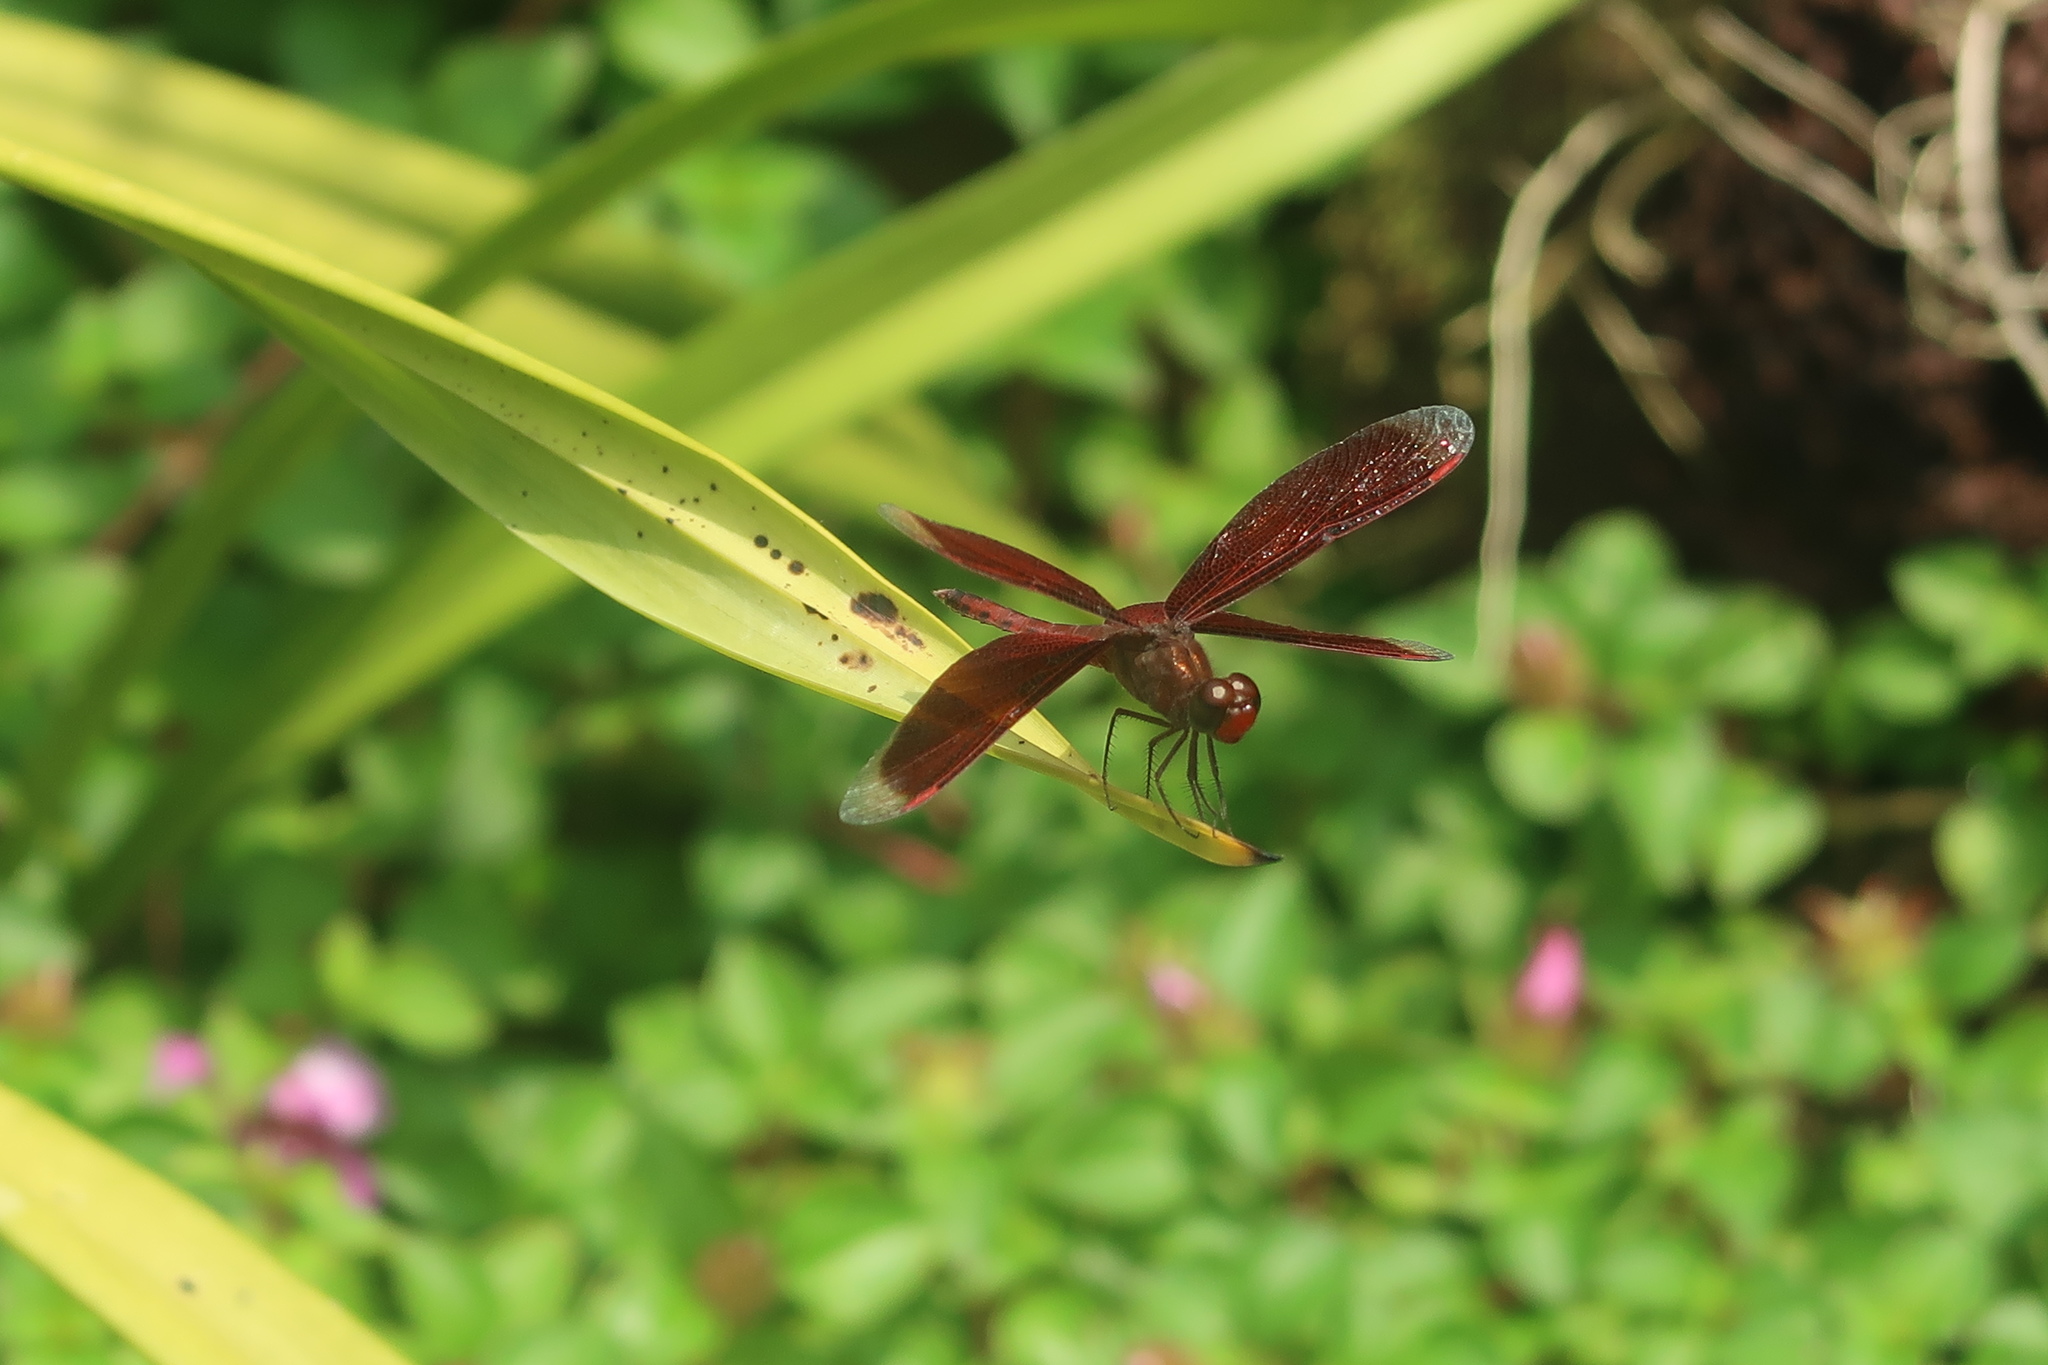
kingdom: Animalia
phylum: Arthropoda
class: Insecta
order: Odonata
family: Libellulidae
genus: Neurothemis
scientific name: Neurothemis fluctuans
